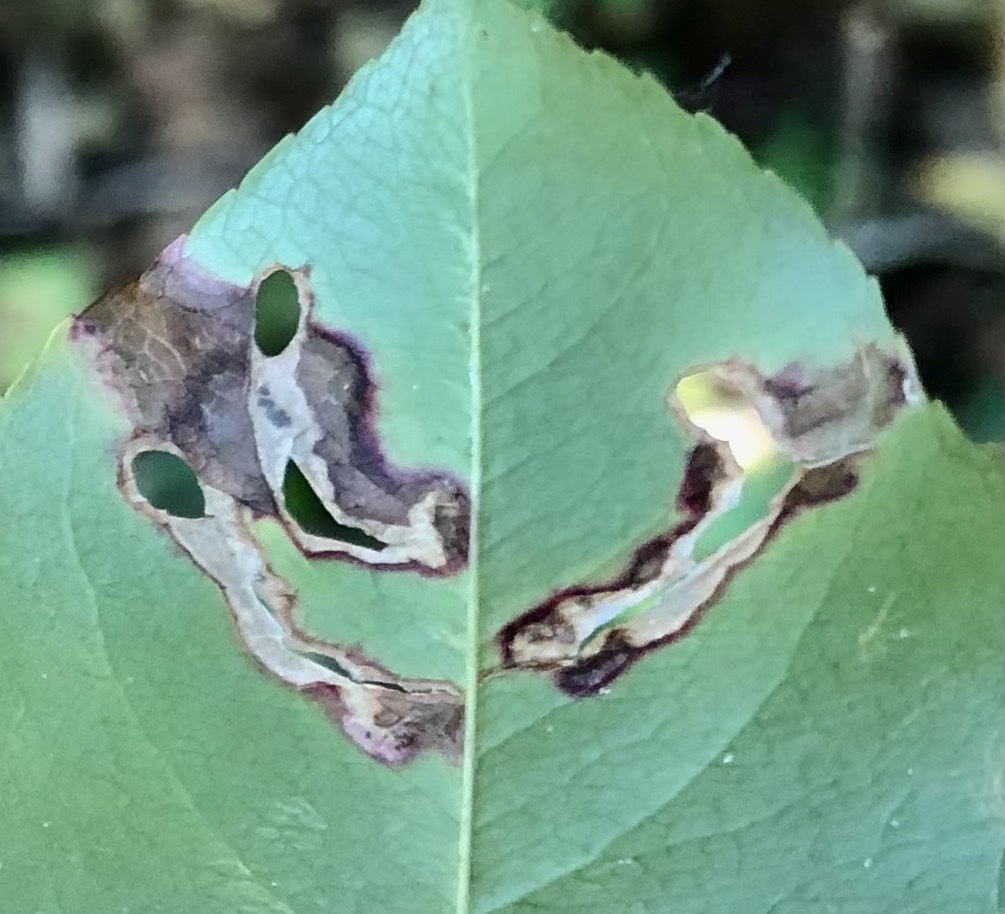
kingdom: Animalia
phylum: Arthropoda
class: Insecta
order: Lepidoptera
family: Heliozelidae
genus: Coptodisca
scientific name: Coptodisca splendoriferella
